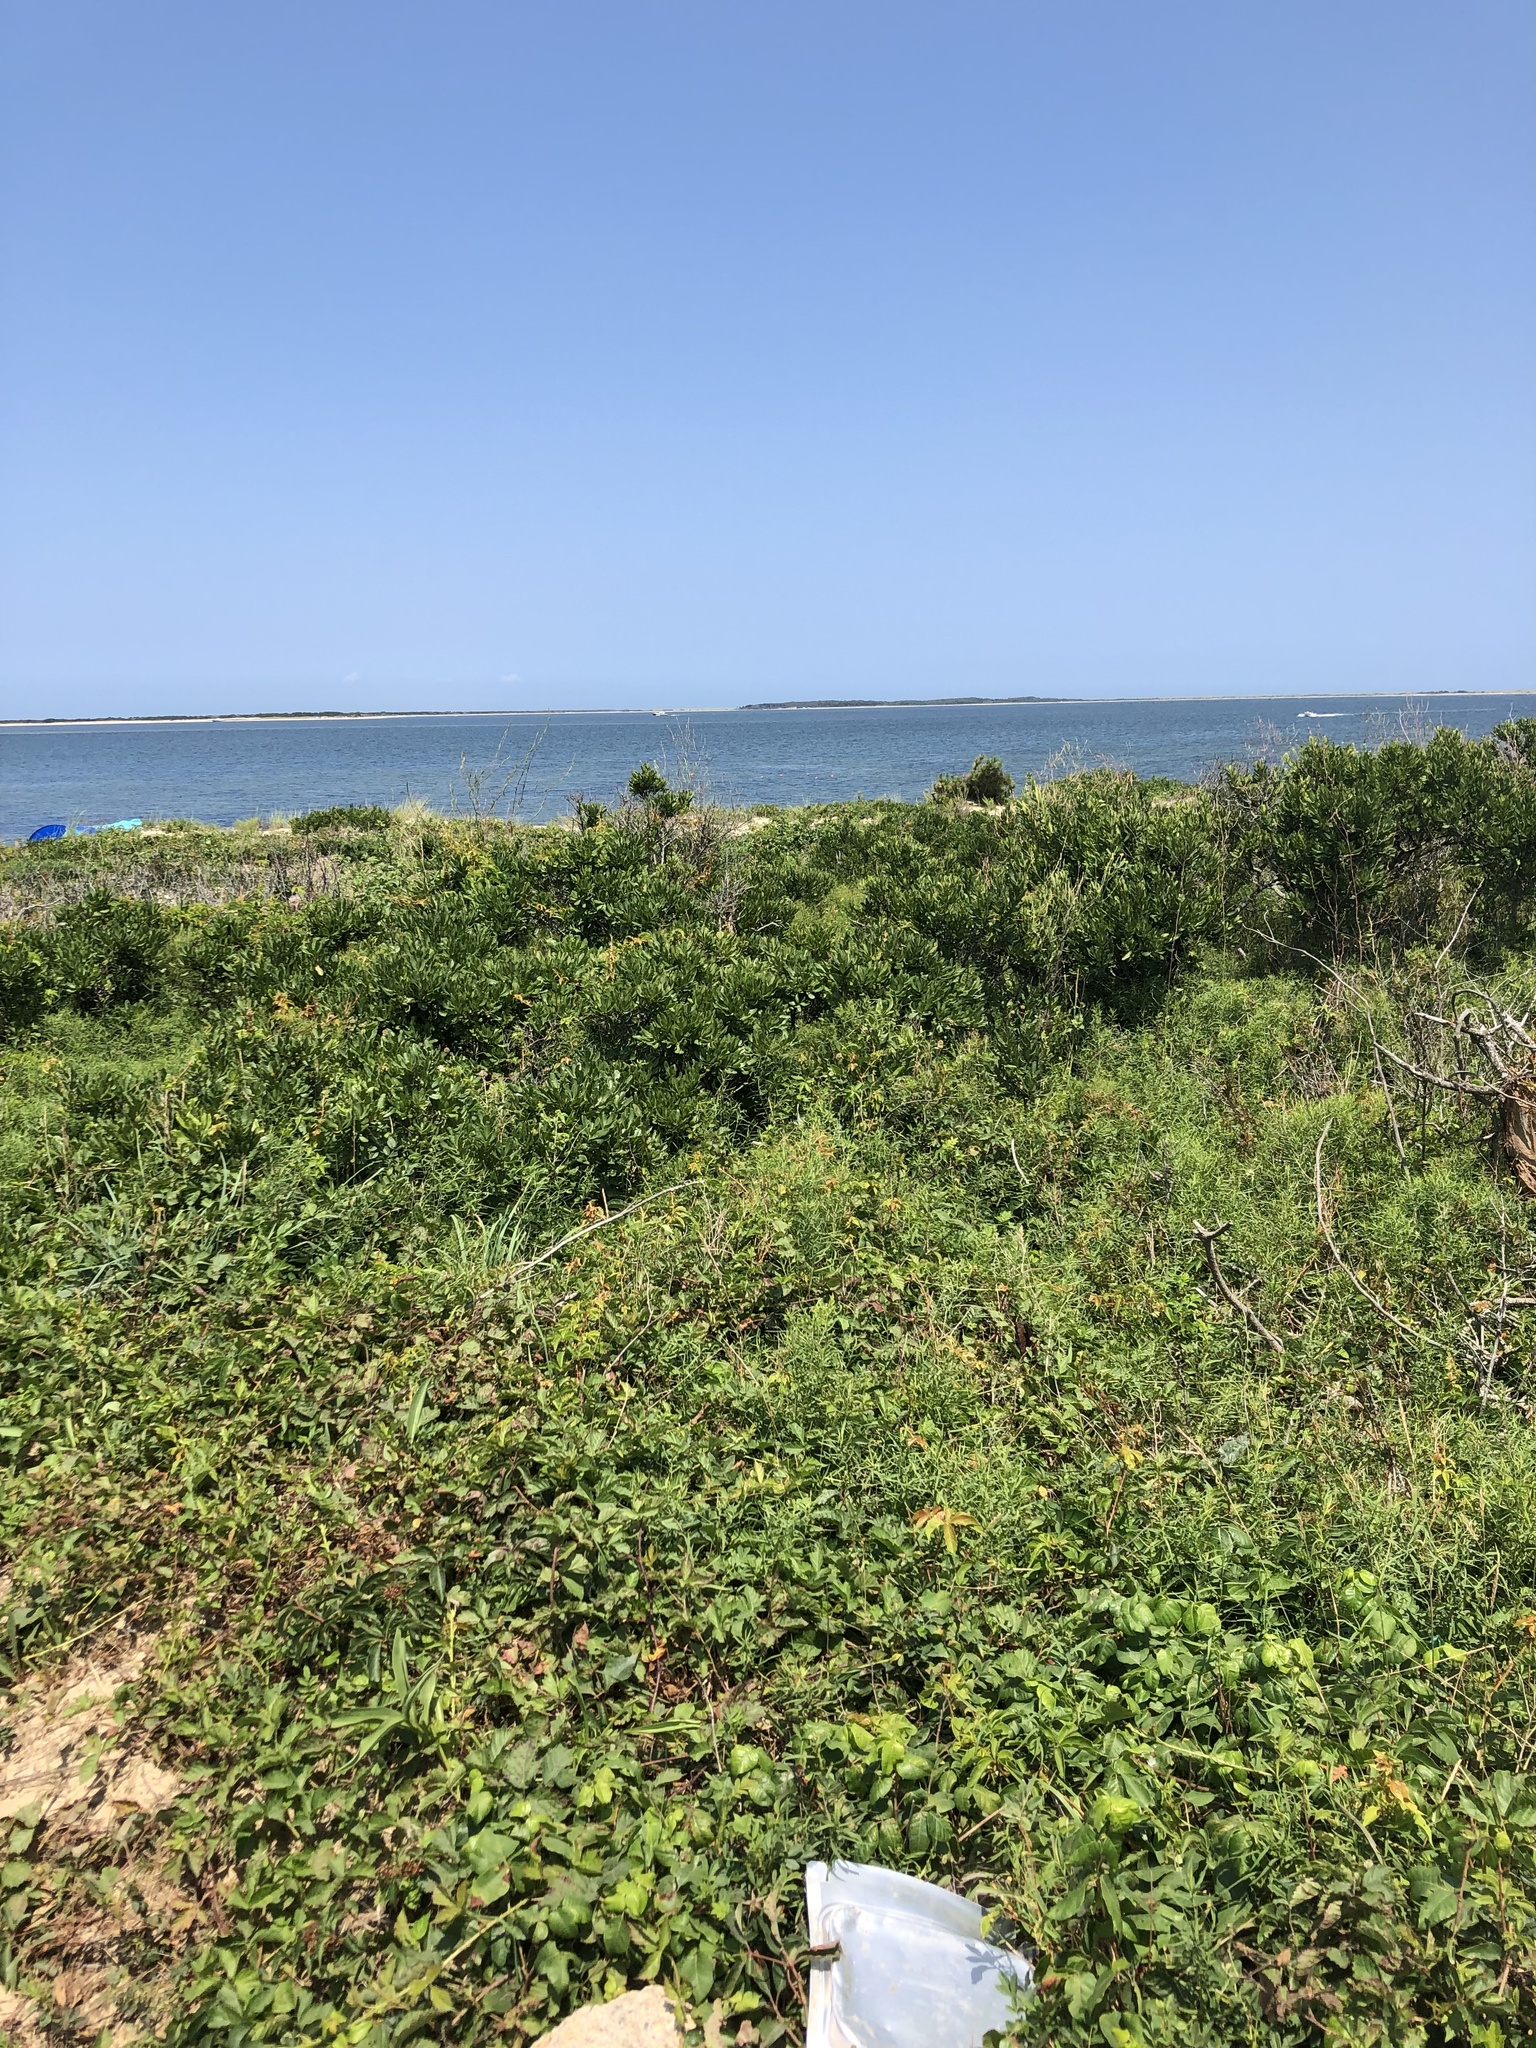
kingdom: Plantae
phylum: Tracheophyta
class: Magnoliopsida
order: Fagales
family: Myricaceae
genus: Morella
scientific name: Morella pensylvanica
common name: Northern bayberry
